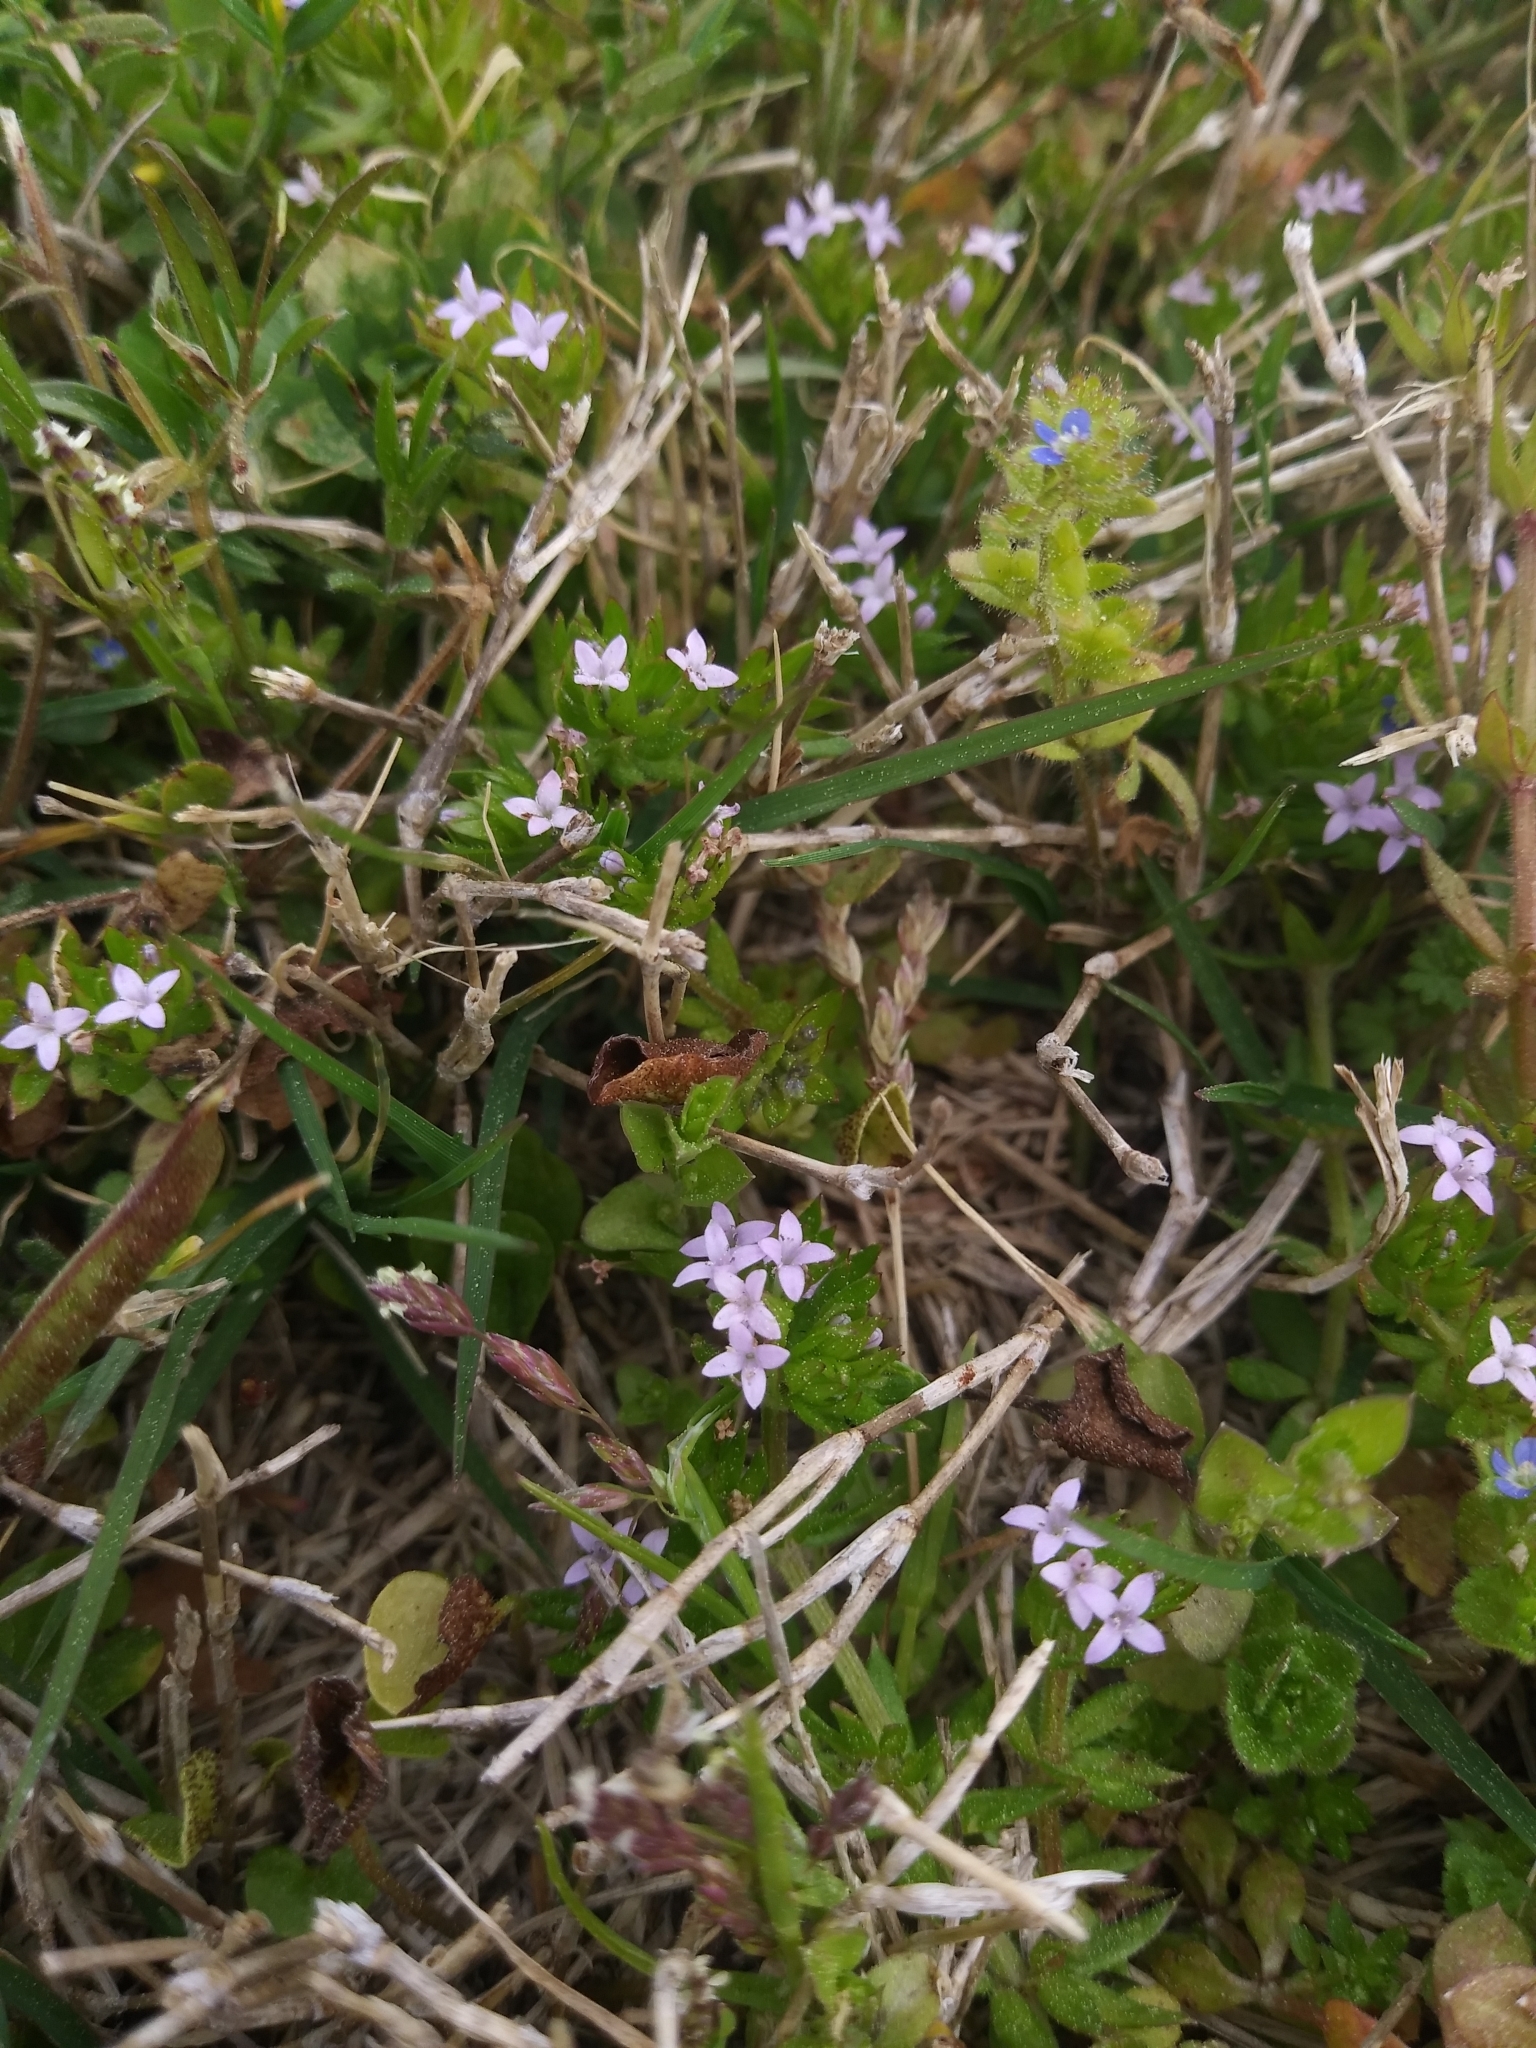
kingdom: Plantae
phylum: Tracheophyta
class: Magnoliopsida
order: Gentianales
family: Rubiaceae
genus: Sherardia
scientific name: Sherardia arvensis
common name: Field madder
